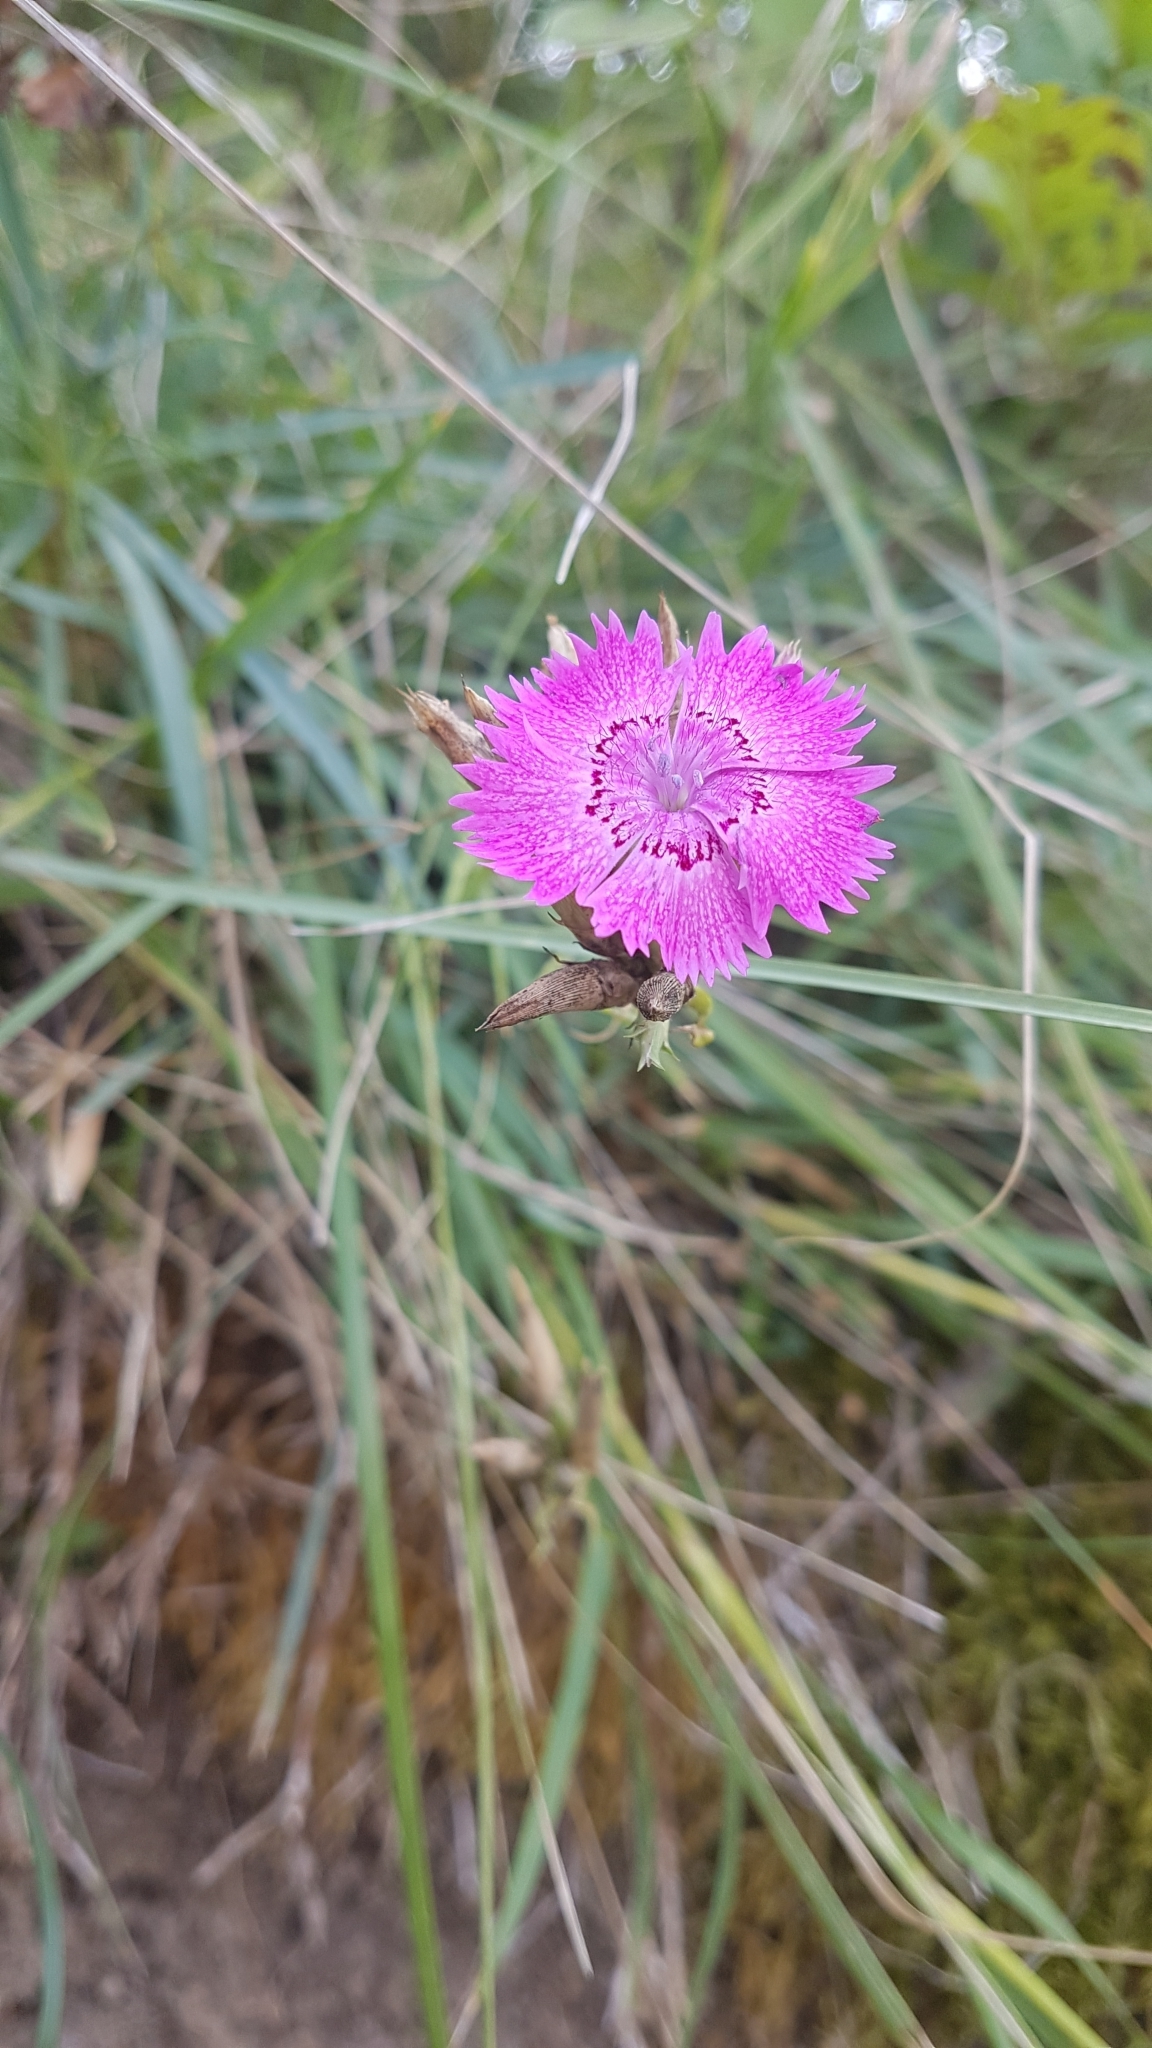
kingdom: Plantae
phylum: Tracheophyta
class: Magnoliopsida
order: Caryophyllales
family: Caryophyllaceae
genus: Dianthus
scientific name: Dianthus seguieri
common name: Ragged pink
